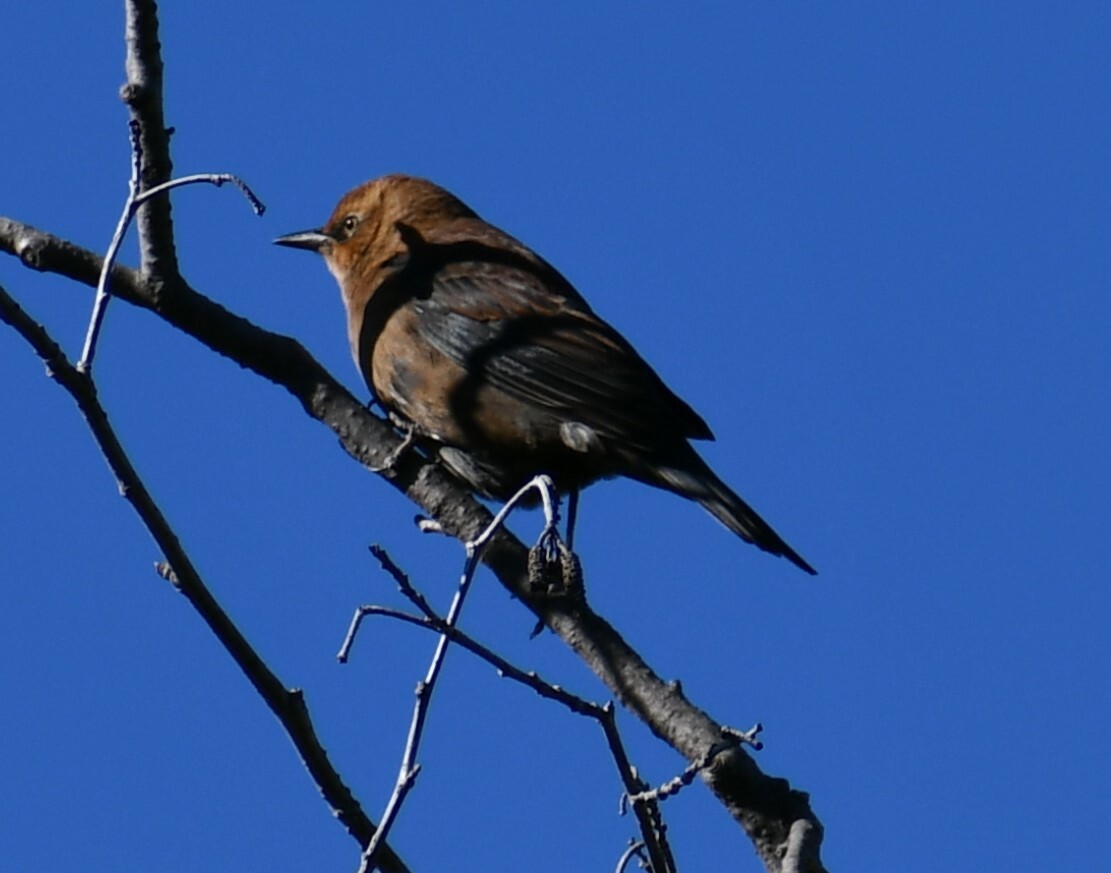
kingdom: Animalia
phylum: Chordata
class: Aves
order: Passeriformes
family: Icteridae
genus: Euphagus
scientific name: Euphagus carolinus
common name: Rusty blackbird
